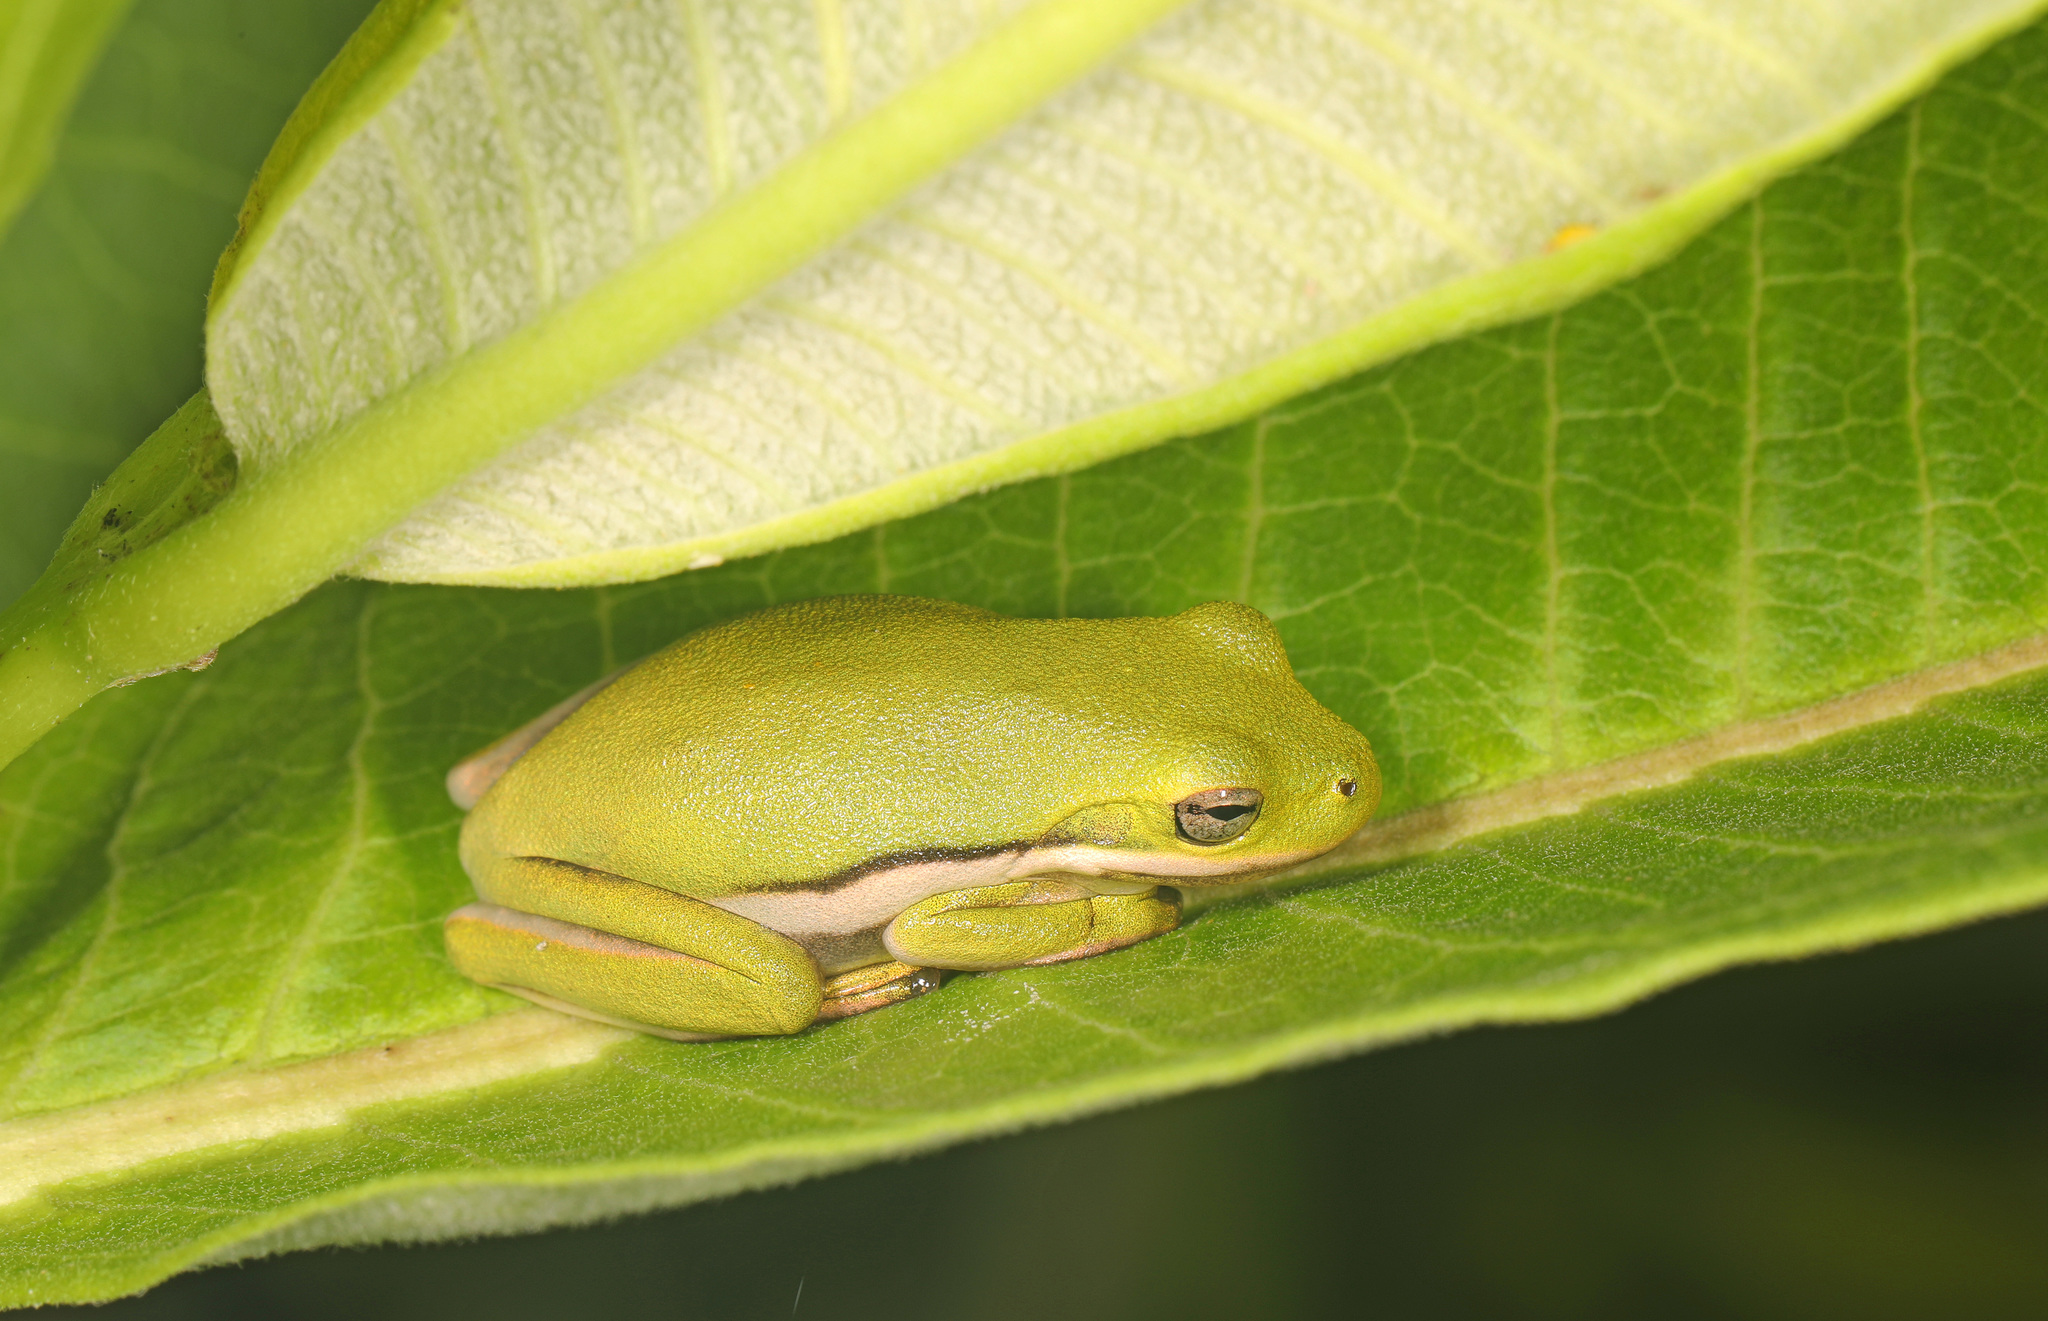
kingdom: Animalia
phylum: Chordata
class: Amphibia
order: Anura
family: Hylidae
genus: Dryophytes
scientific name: Dryophytes cinereus
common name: Green treefrog
